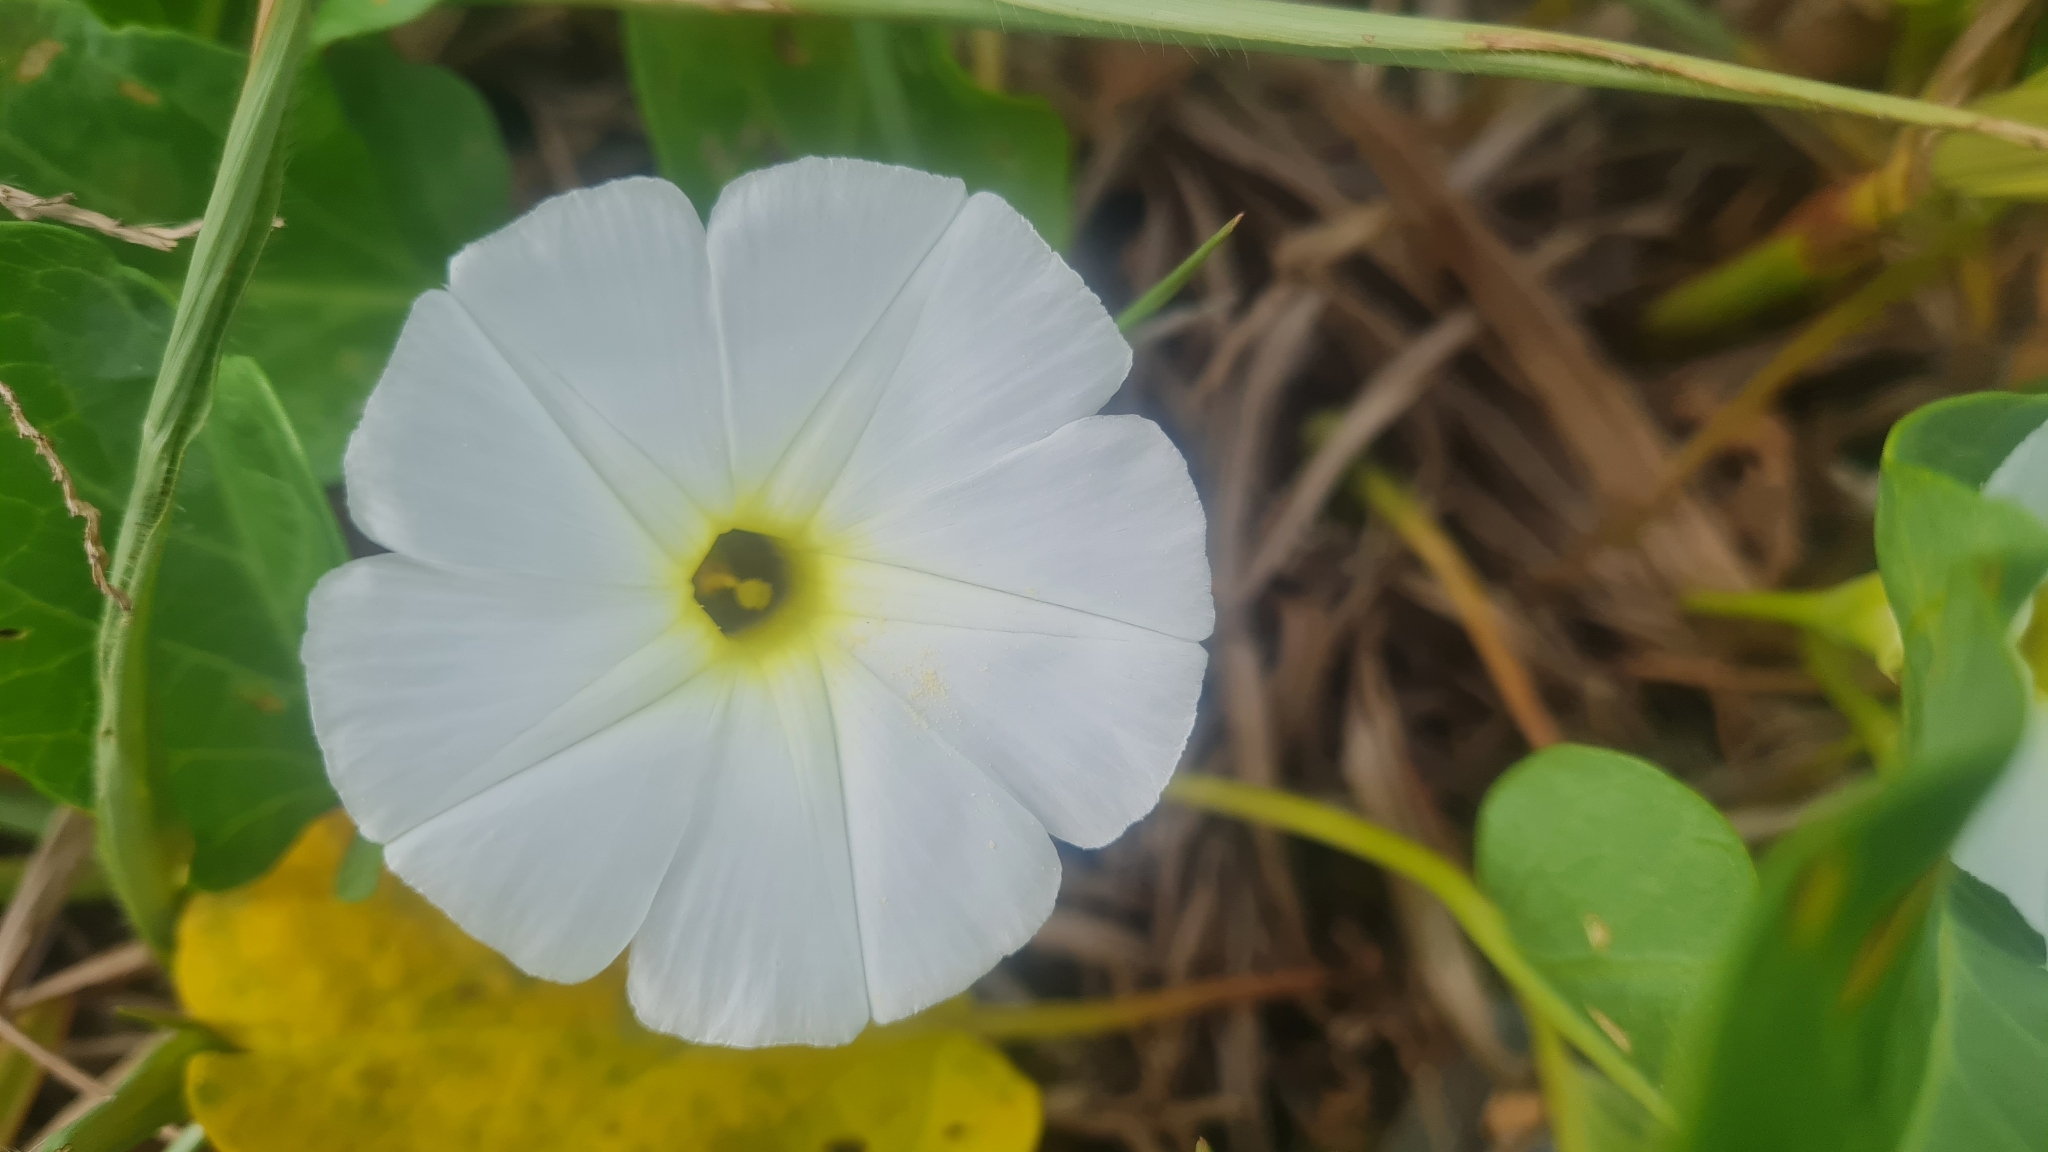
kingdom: Plantae
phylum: Tracheophyta
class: Magnoliopsida
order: Solanales
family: Convolvulaceae
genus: Ipomoea
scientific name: Ipomoea imperati
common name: Fiddle-leaf morning-glory
